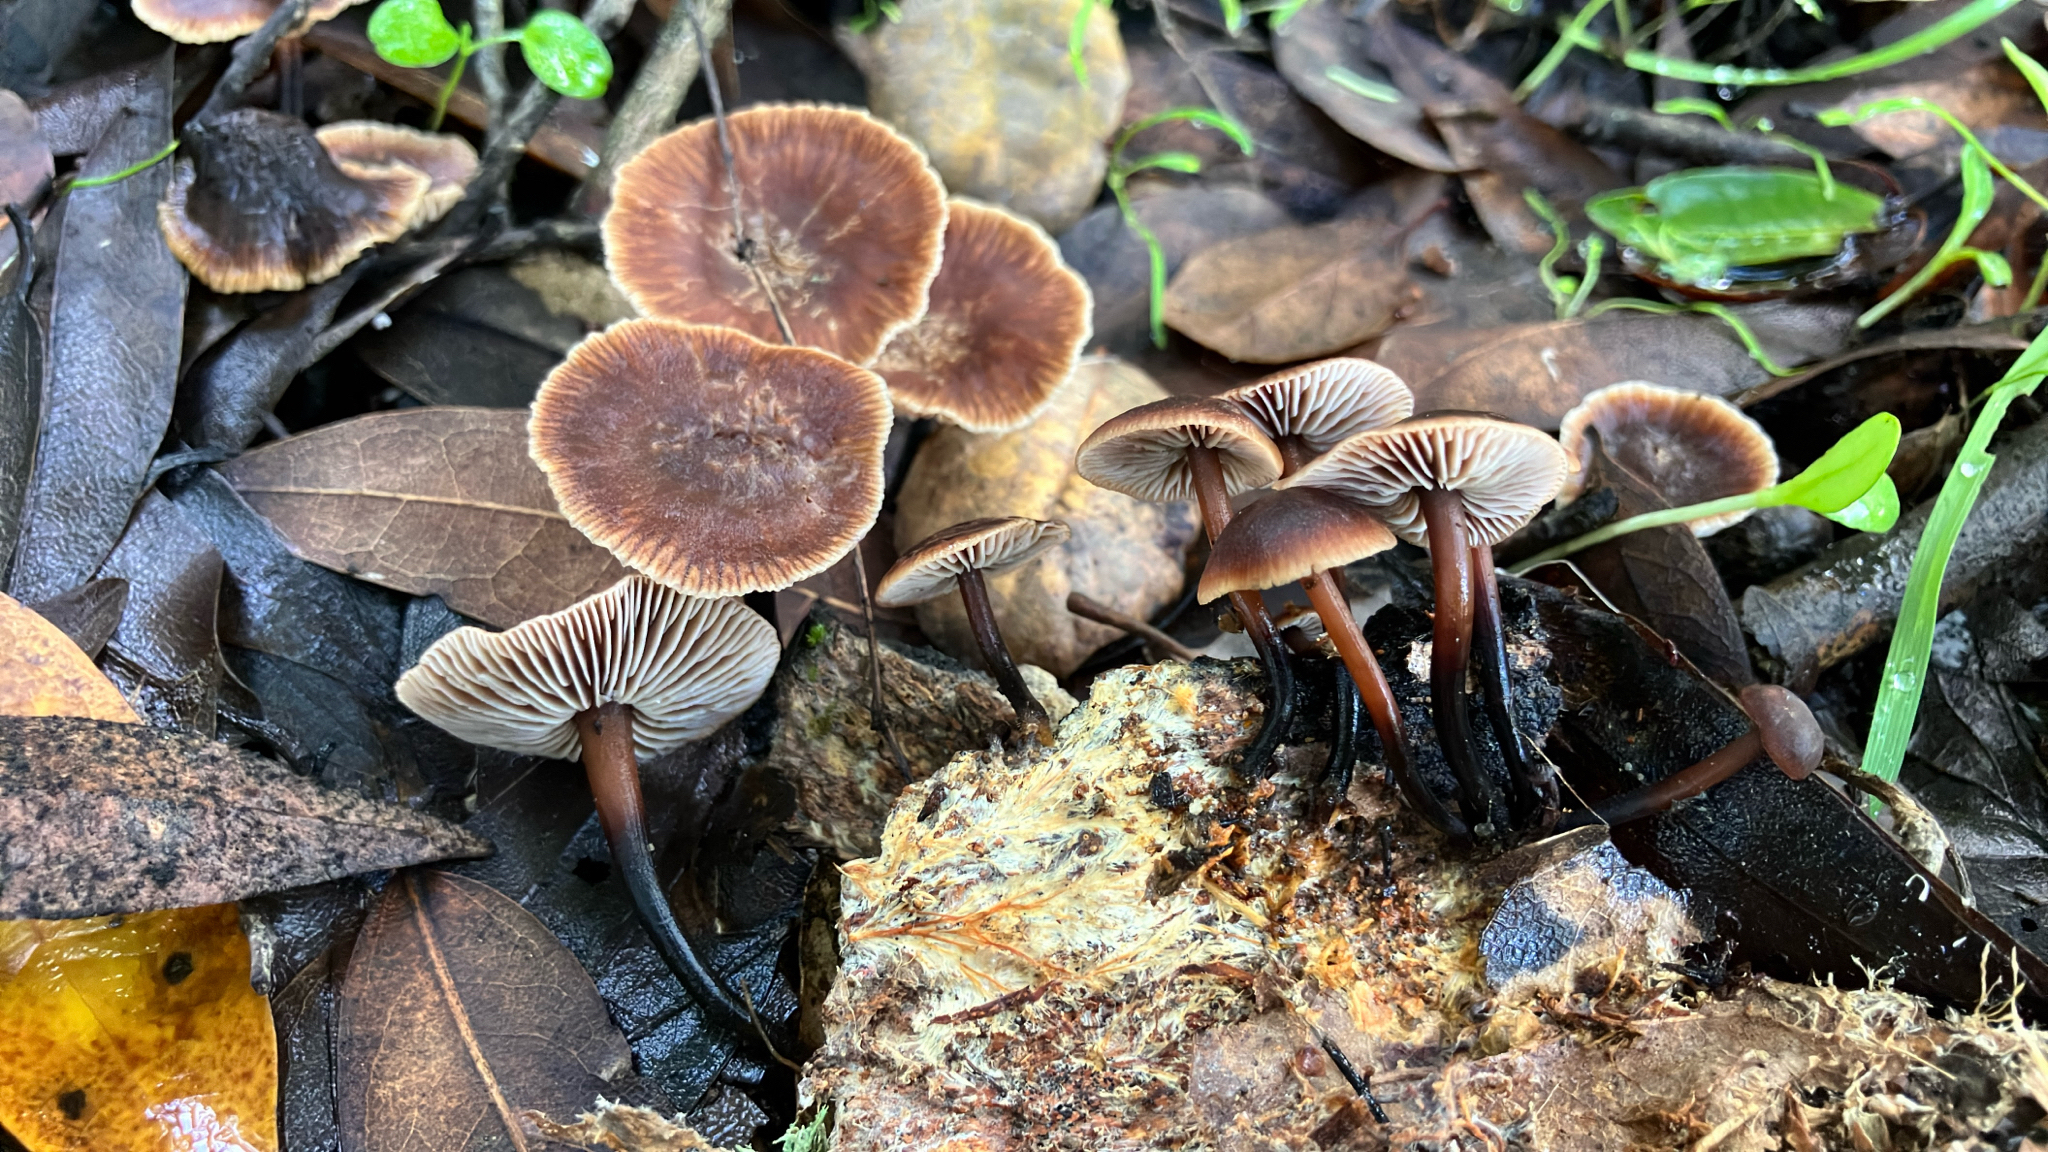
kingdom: Fungi
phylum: Basidiomycota
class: Agaricomycetes
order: Agaricales
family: Omphalotaceae
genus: Gymnopus
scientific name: Gymnopus brassicolens
